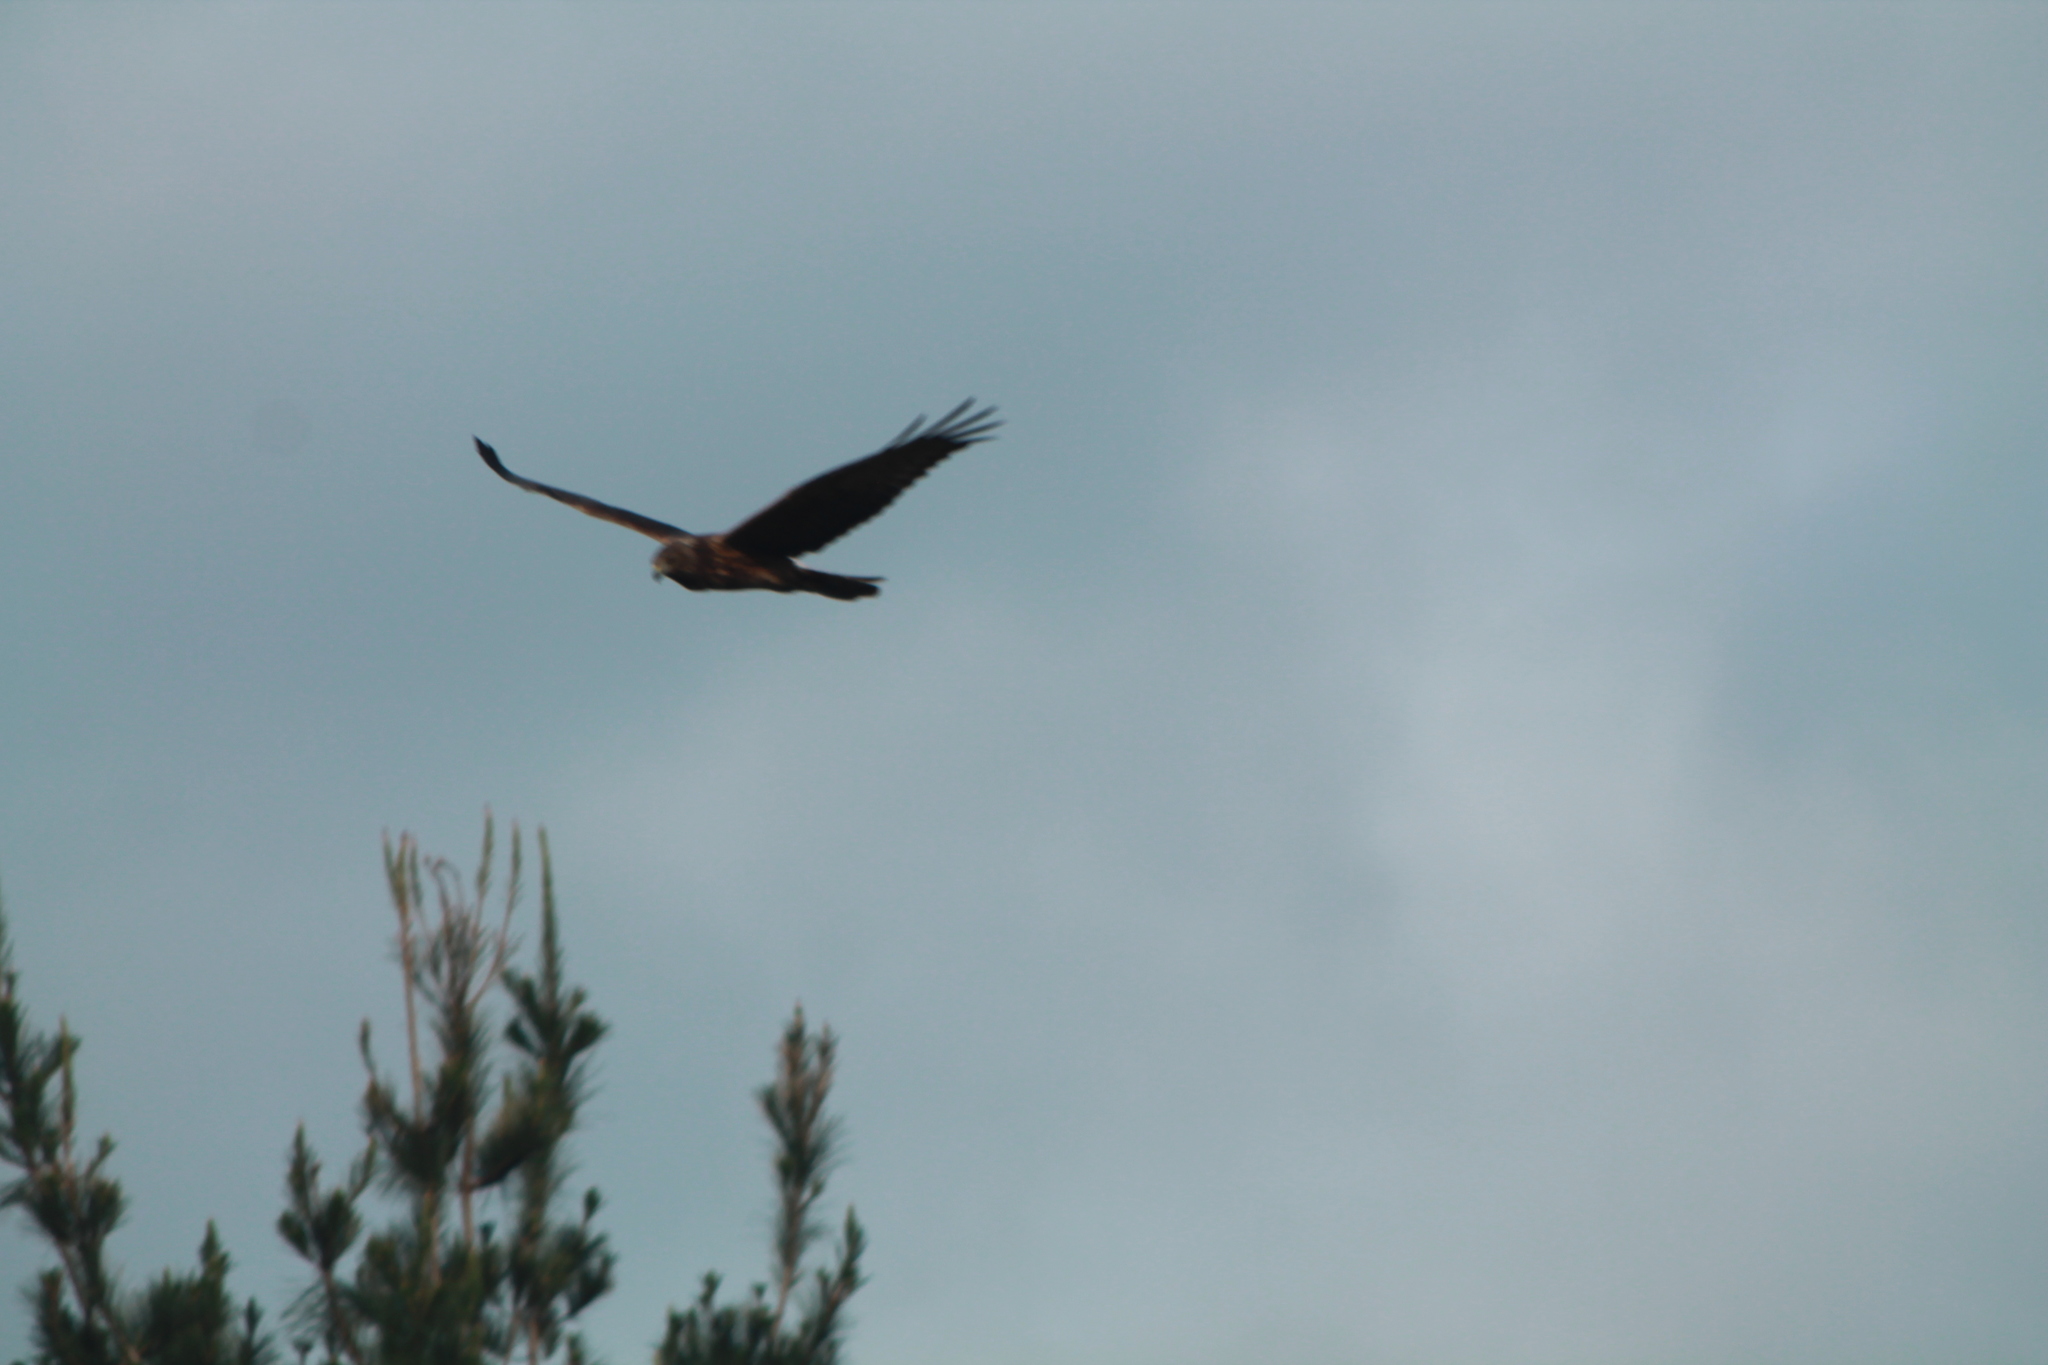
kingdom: Animalia
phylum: Chordata
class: Aves
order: Accipitriformes
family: Accipitridae
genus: Circus
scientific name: Circus approximans
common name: Swamp harrier
